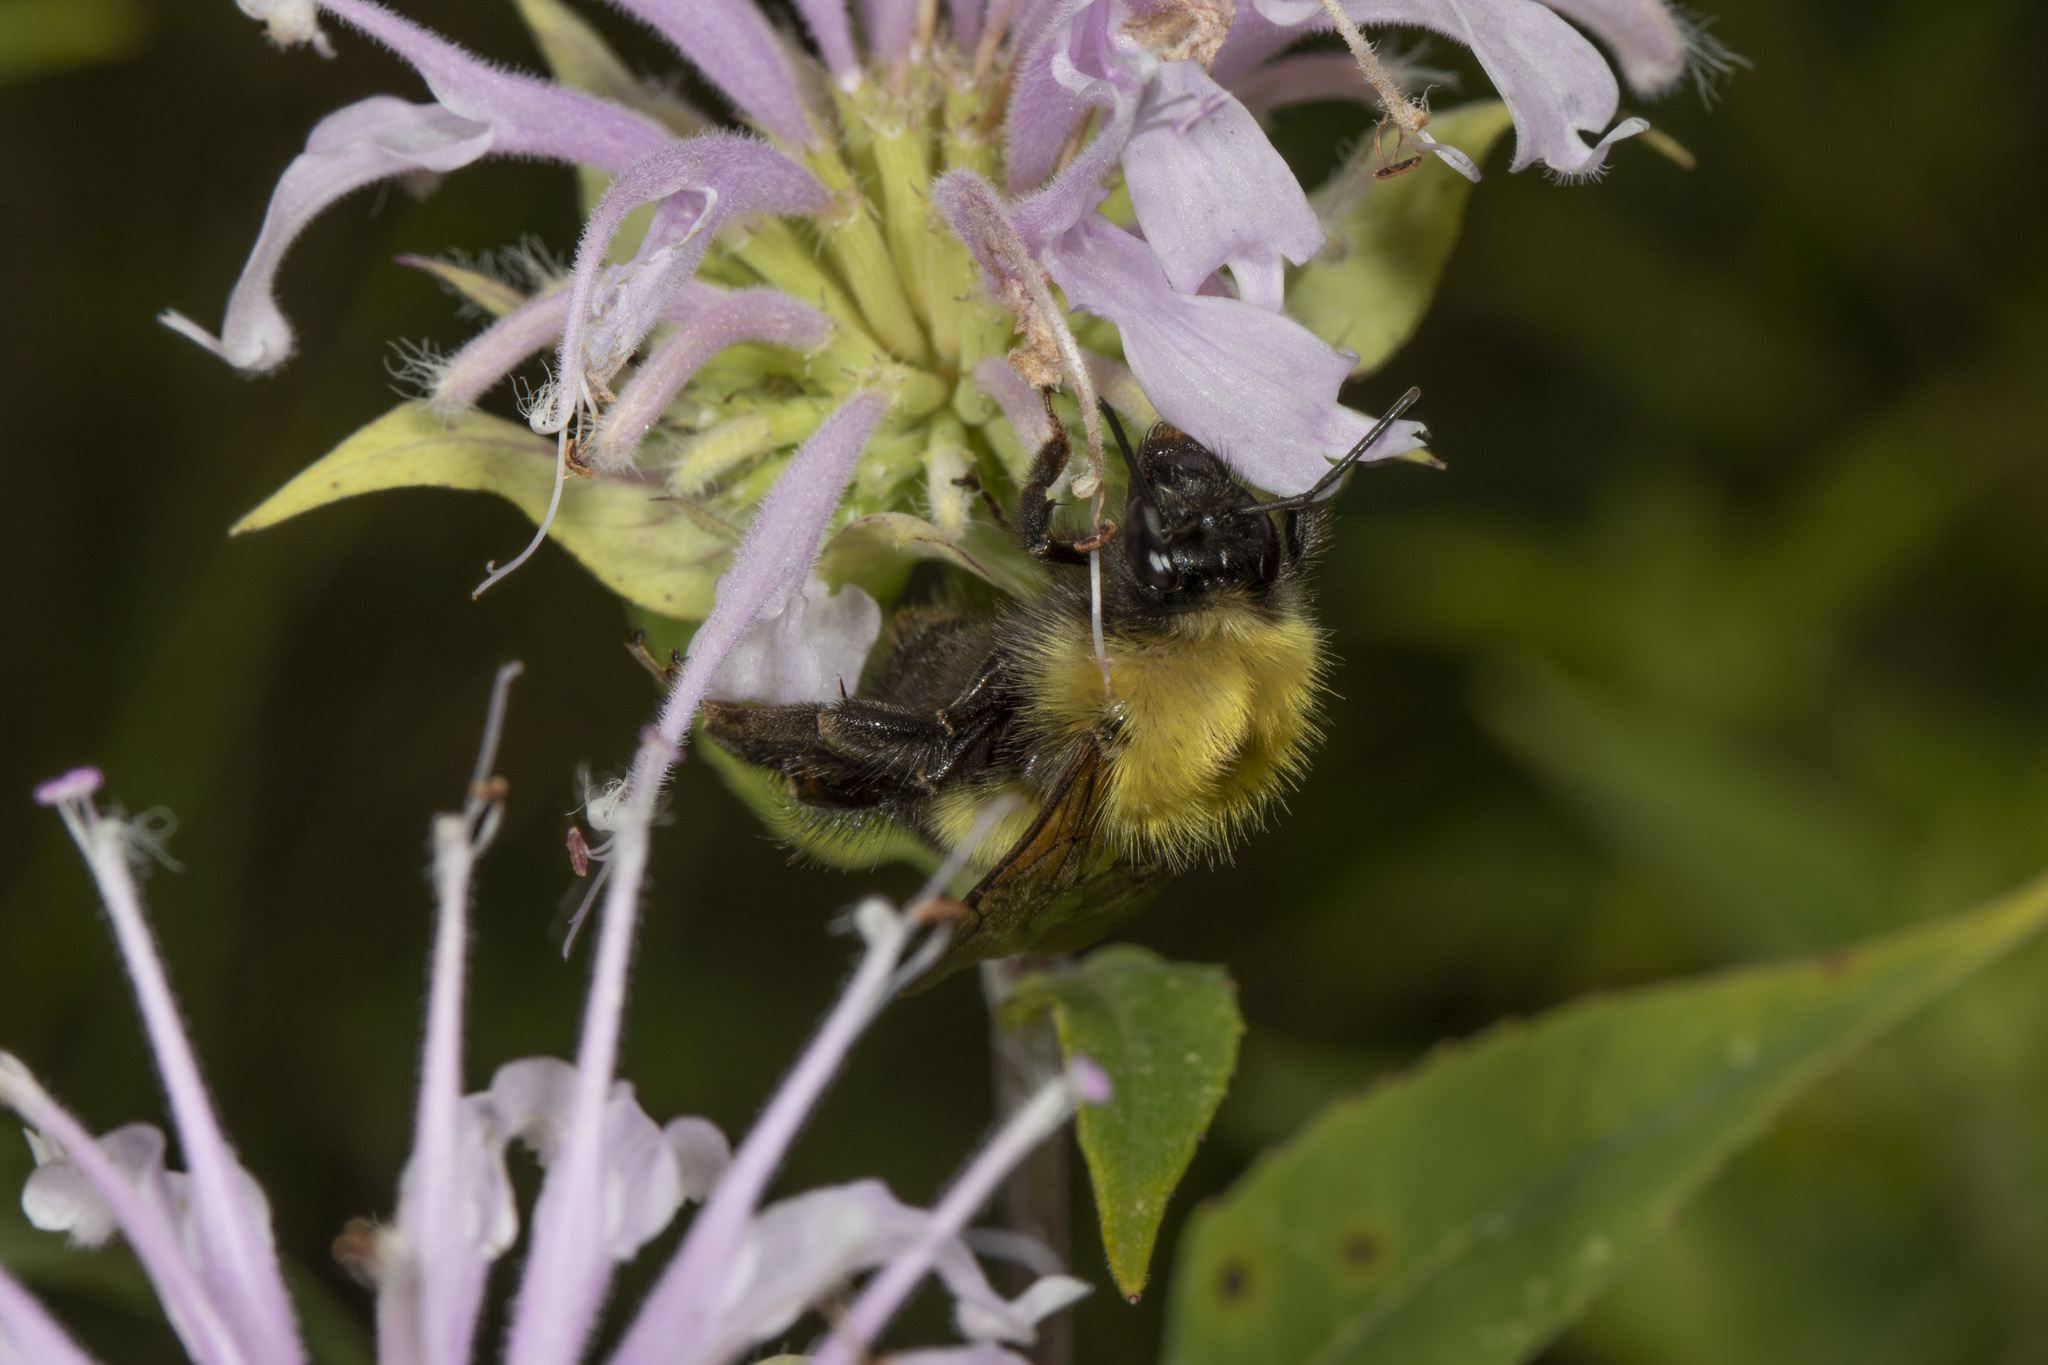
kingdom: Animalia
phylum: Arthropoda
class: Insecta
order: Hymenoptera
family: Apidae
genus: Bombus
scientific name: Bombus perplexus
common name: Confusing bumble bee
